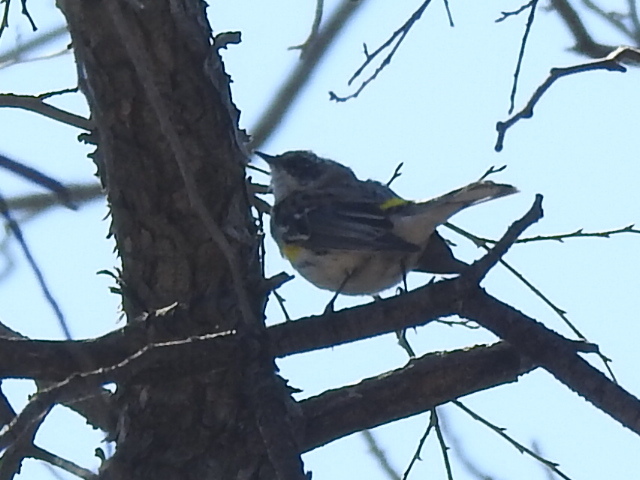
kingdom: Animalia
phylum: Chordata
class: Aves
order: Passeriformes
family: Parulidae
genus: Setophaga
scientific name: Setophaga coronata
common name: Myrtle warbler
